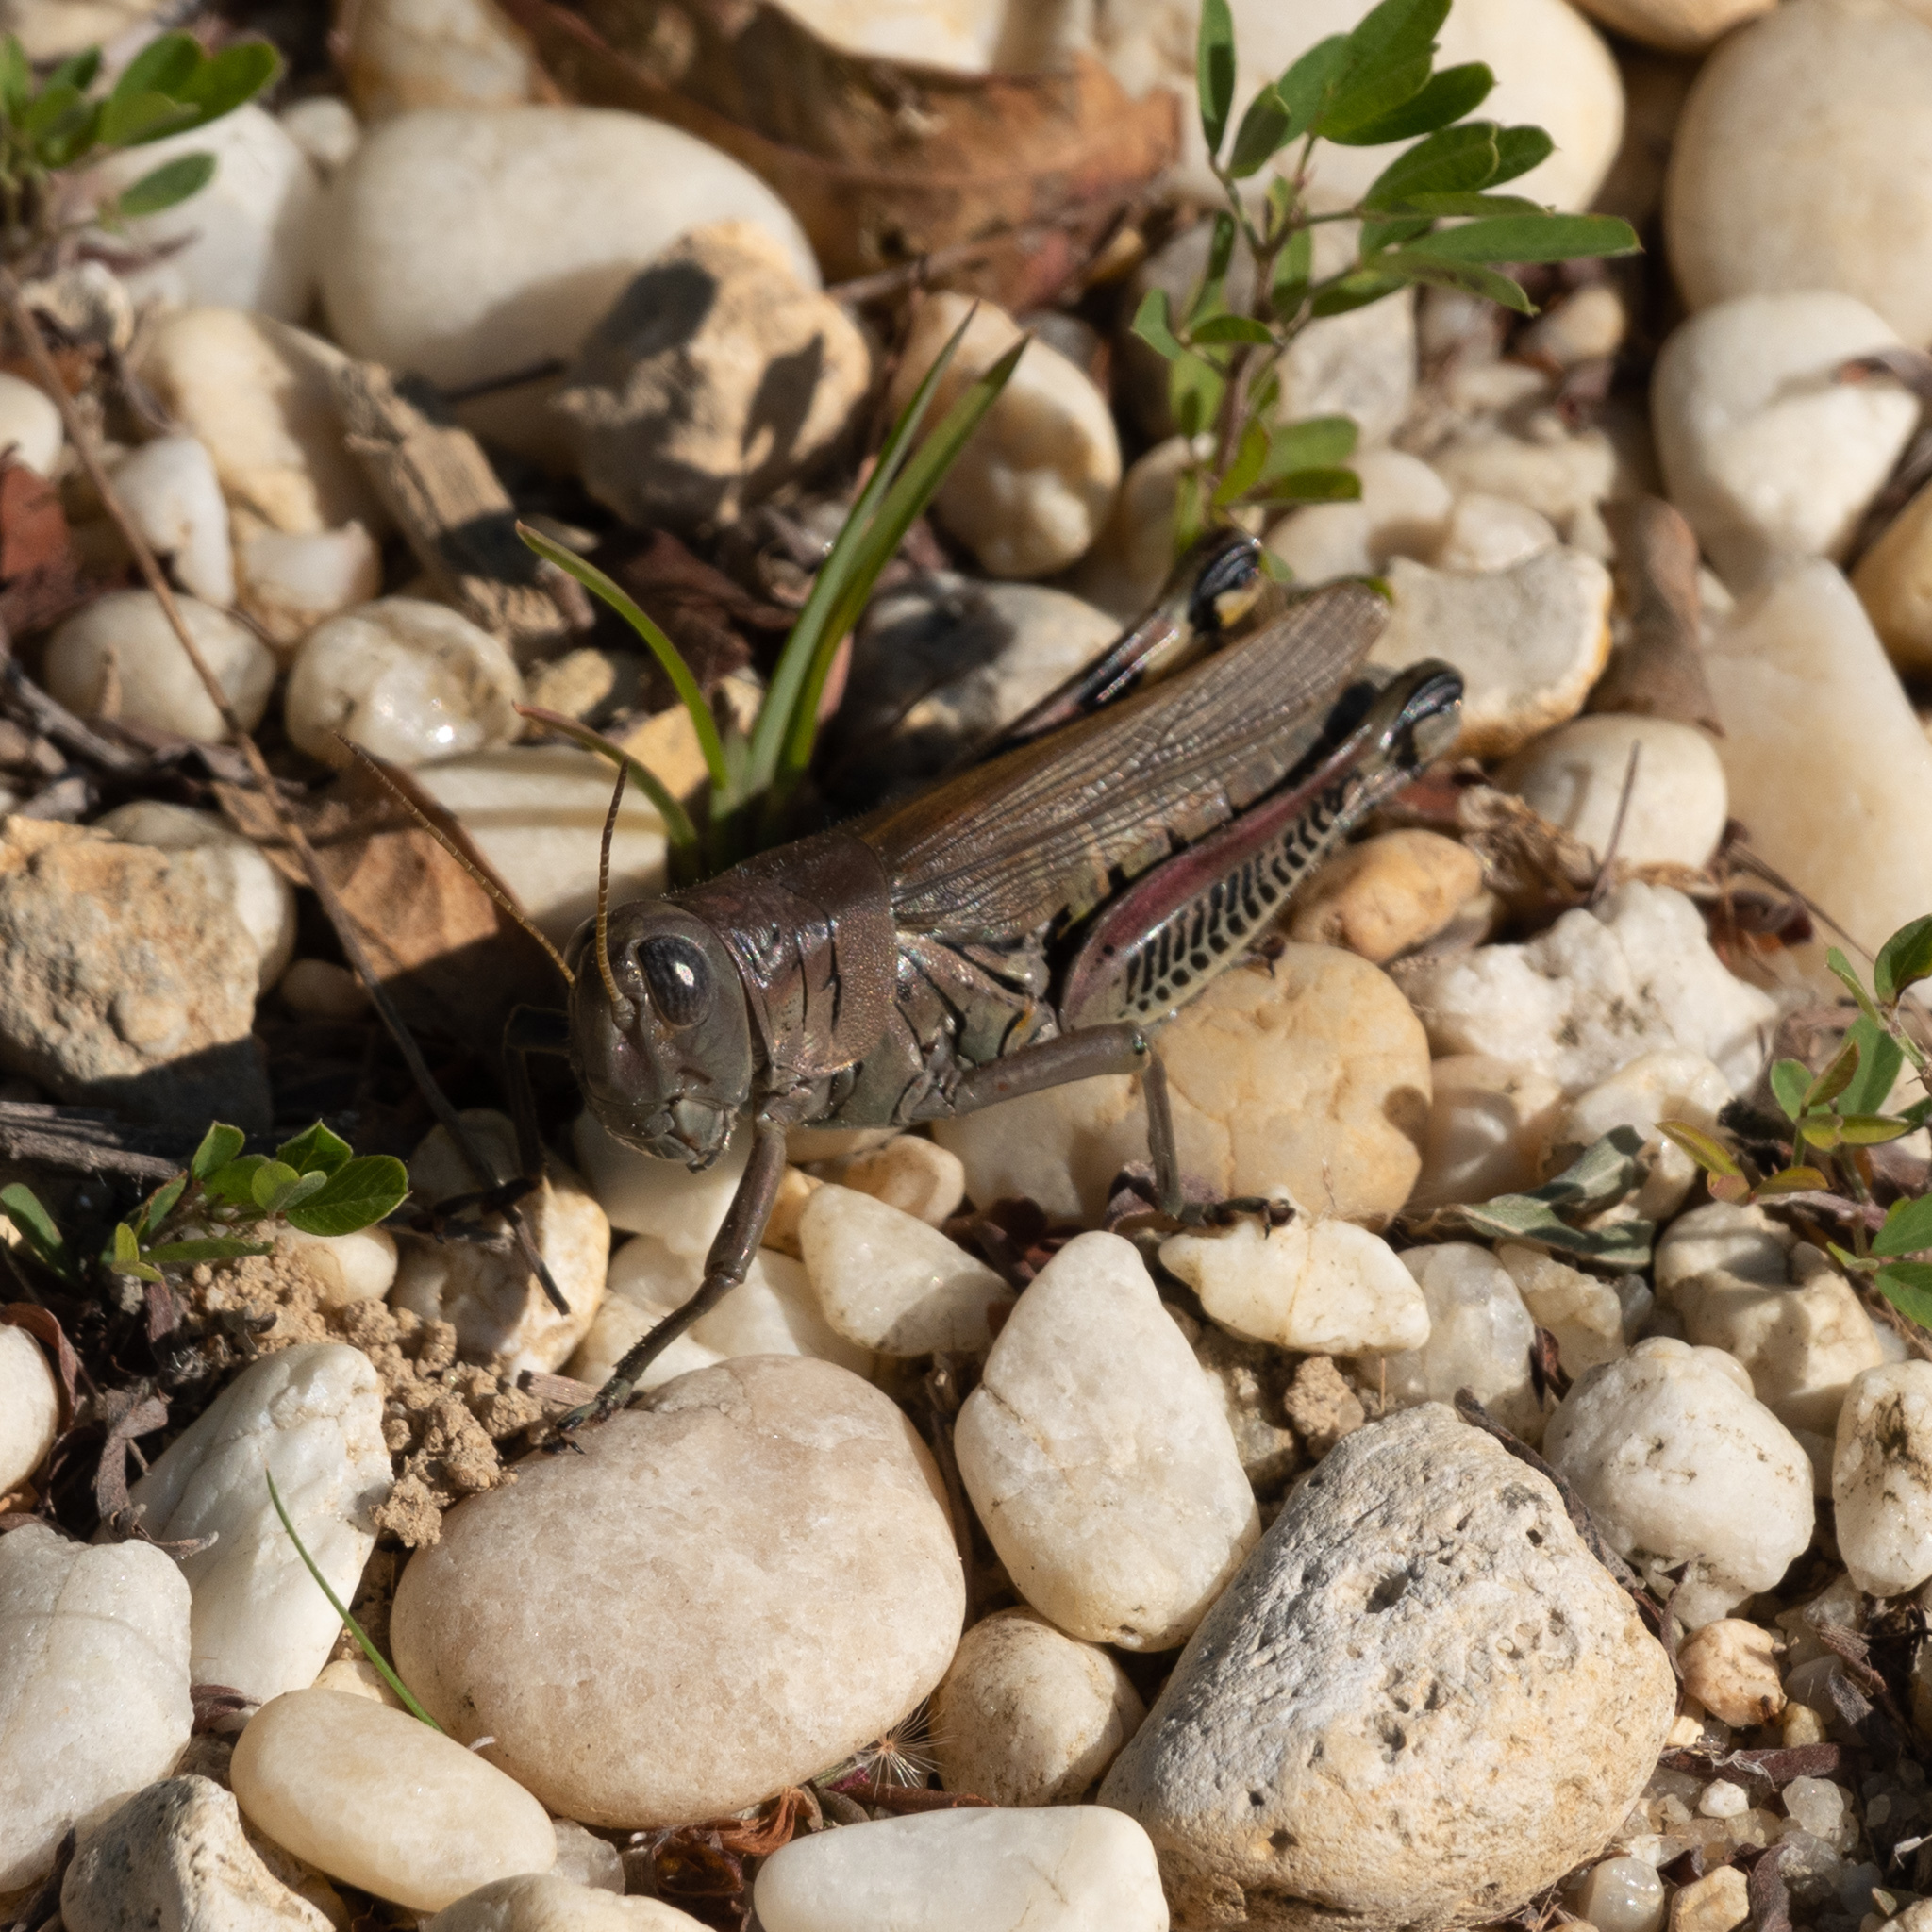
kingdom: Animalia
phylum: Arthropoda
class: Insecta
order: Orthoptera
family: Acrididae
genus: Melanoplus
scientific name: Melanoplus differentialis
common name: Differential grasshopper
